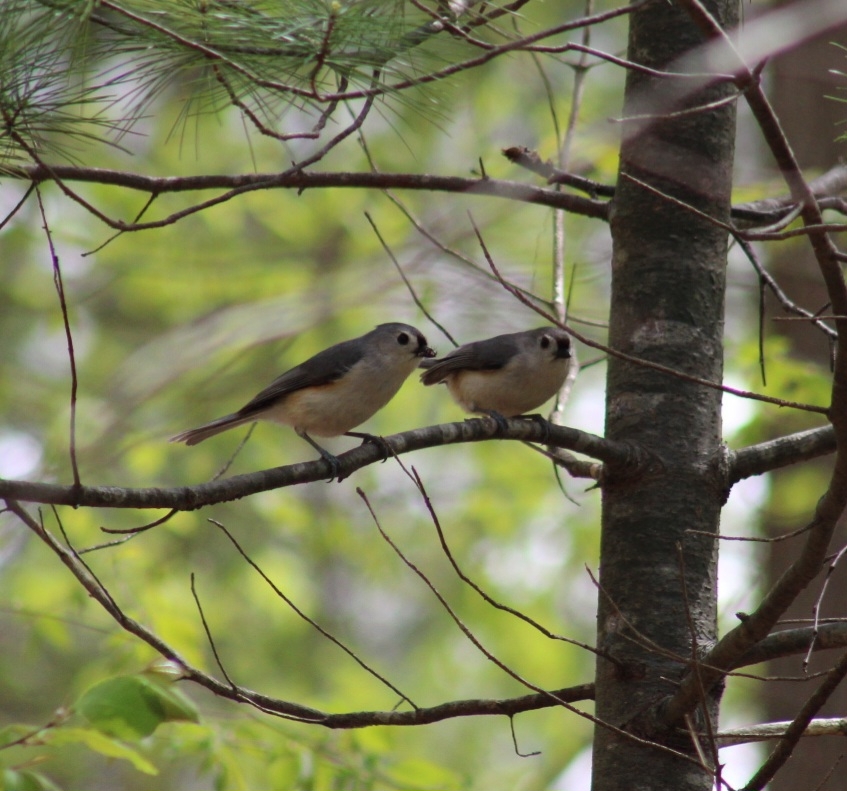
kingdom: Animalia
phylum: Chordata
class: Aves
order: Passeriformes
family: Paridae
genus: Baeolophus
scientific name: Baeolophus bicolor
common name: Tufted titmouse
